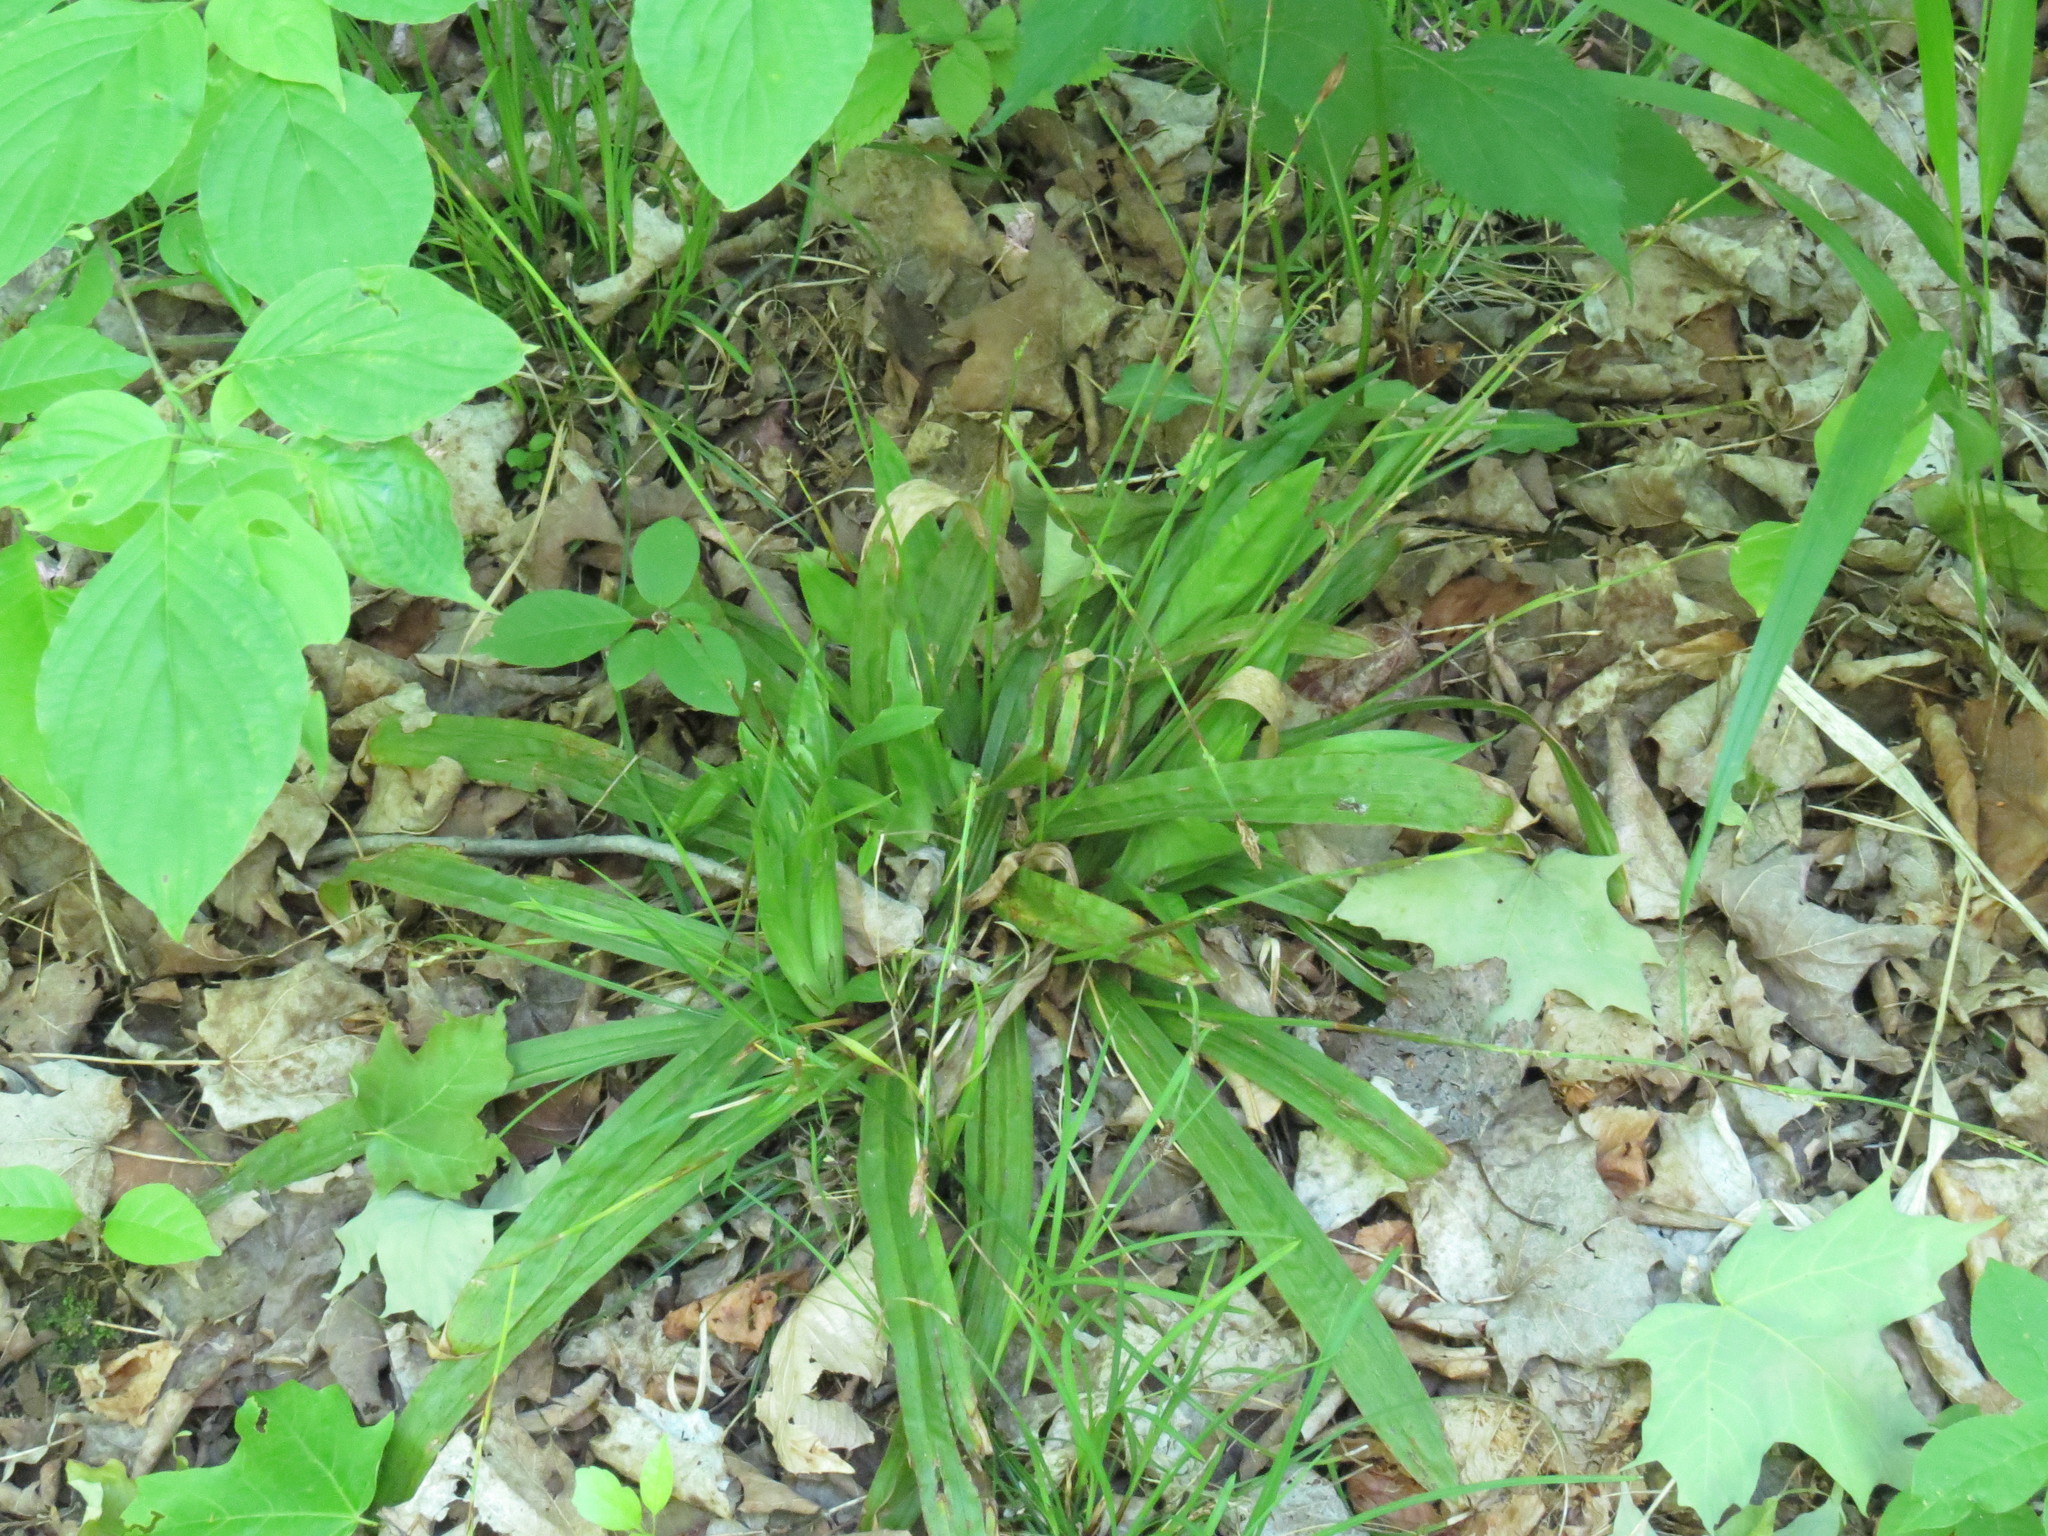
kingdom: Plantae
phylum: Tracheophyta
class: Liliopsida
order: Poales
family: Cyperaceae
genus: Carex
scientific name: Carex plantaginea
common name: Plantain-leaved sedge
